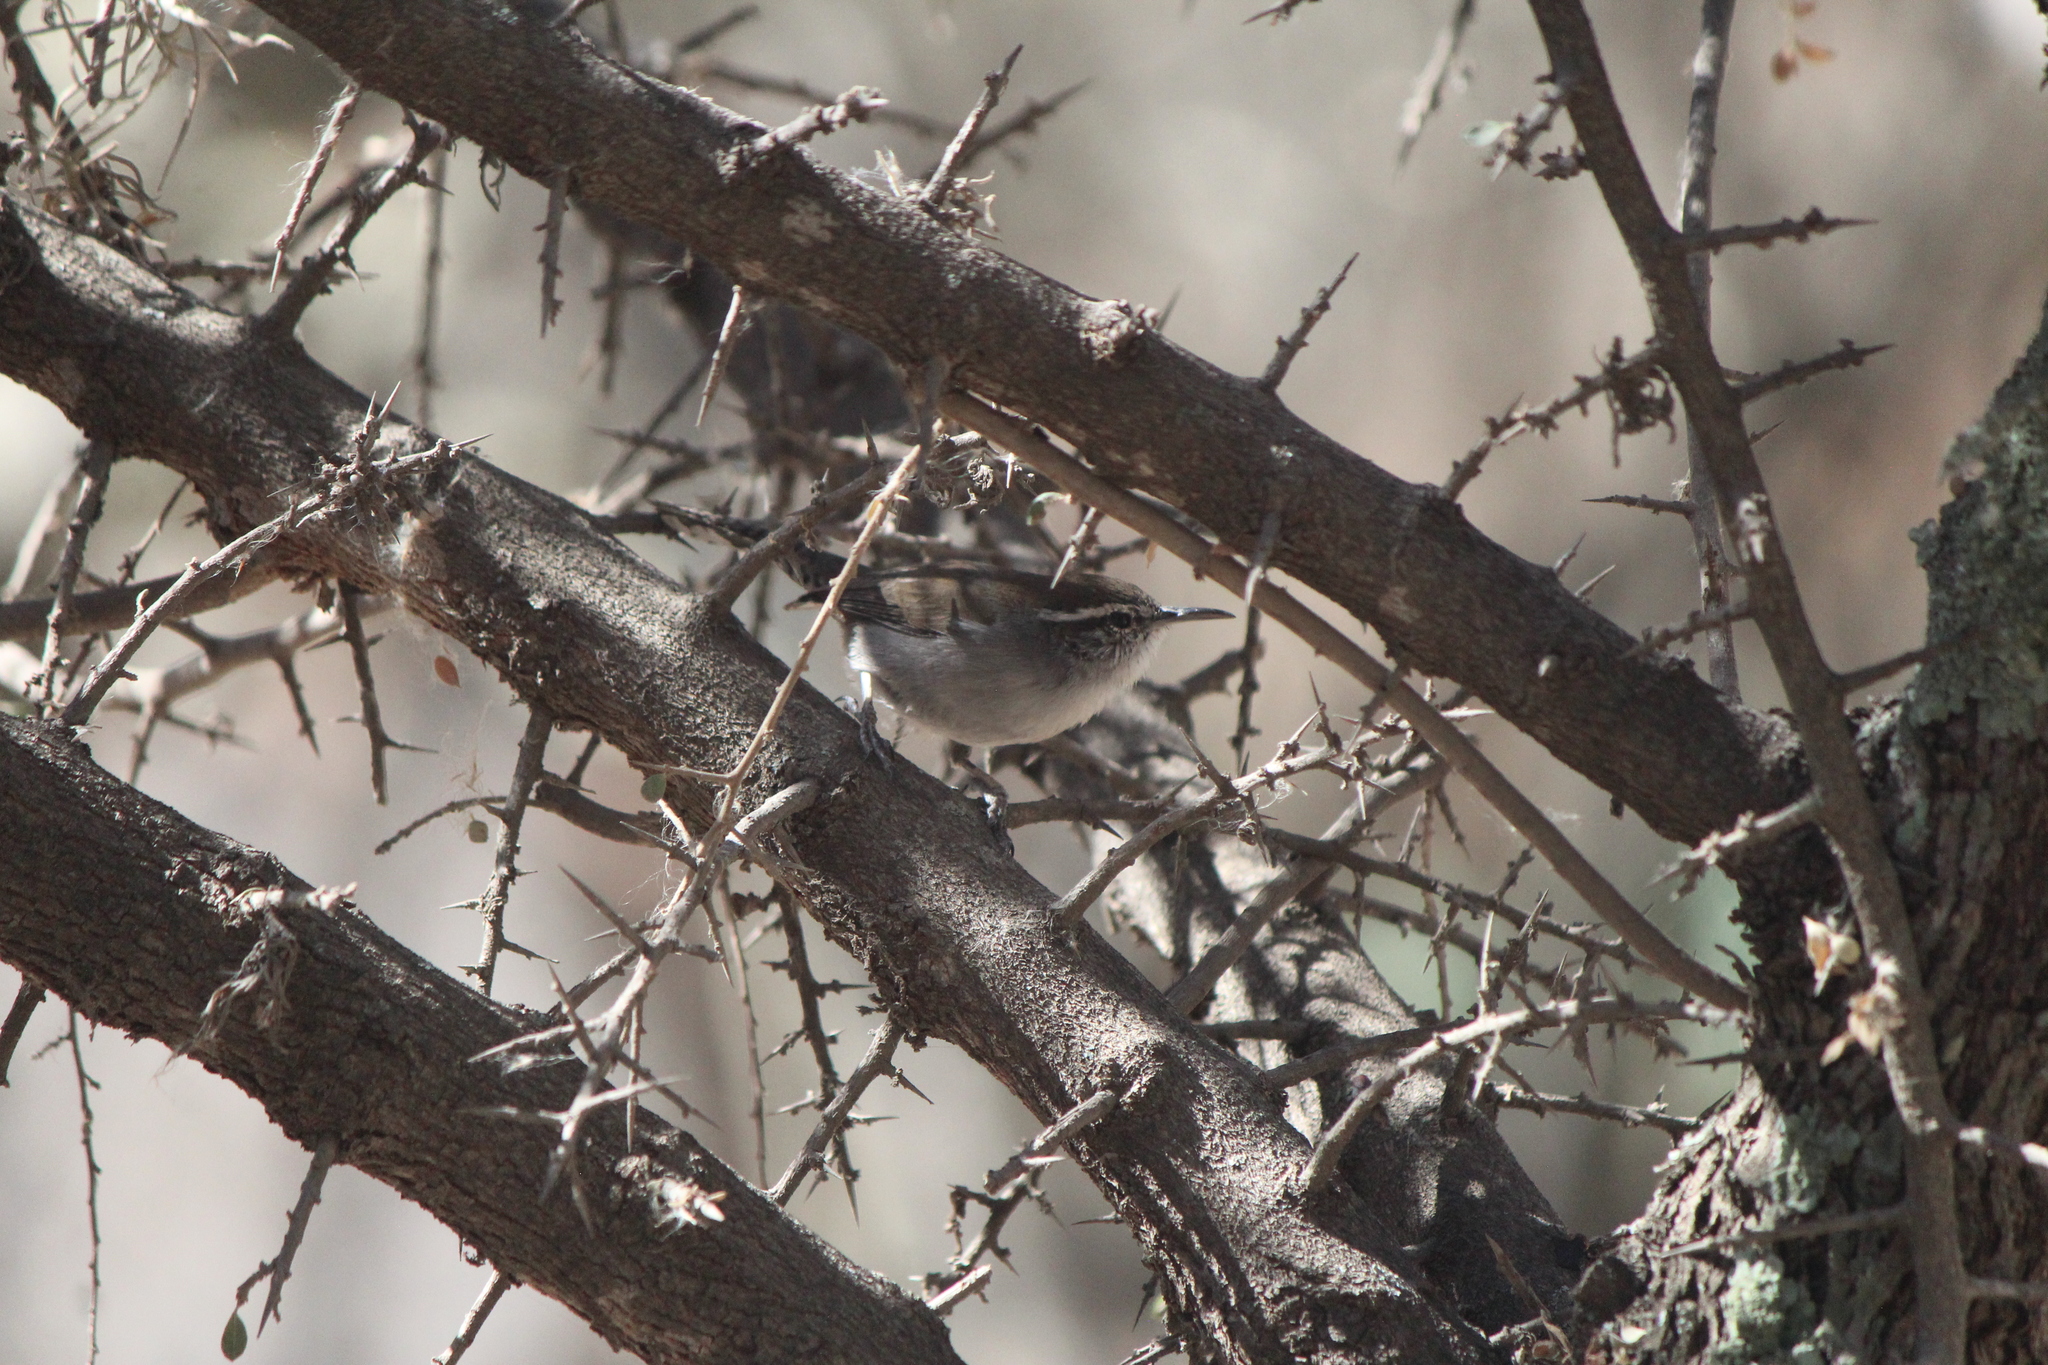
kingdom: Animalia
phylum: Chordata
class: Aves
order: Passeriformes
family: Troglodytidae
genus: Thryomanes
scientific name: Thryomanes bewickii
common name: Bewick's wren
